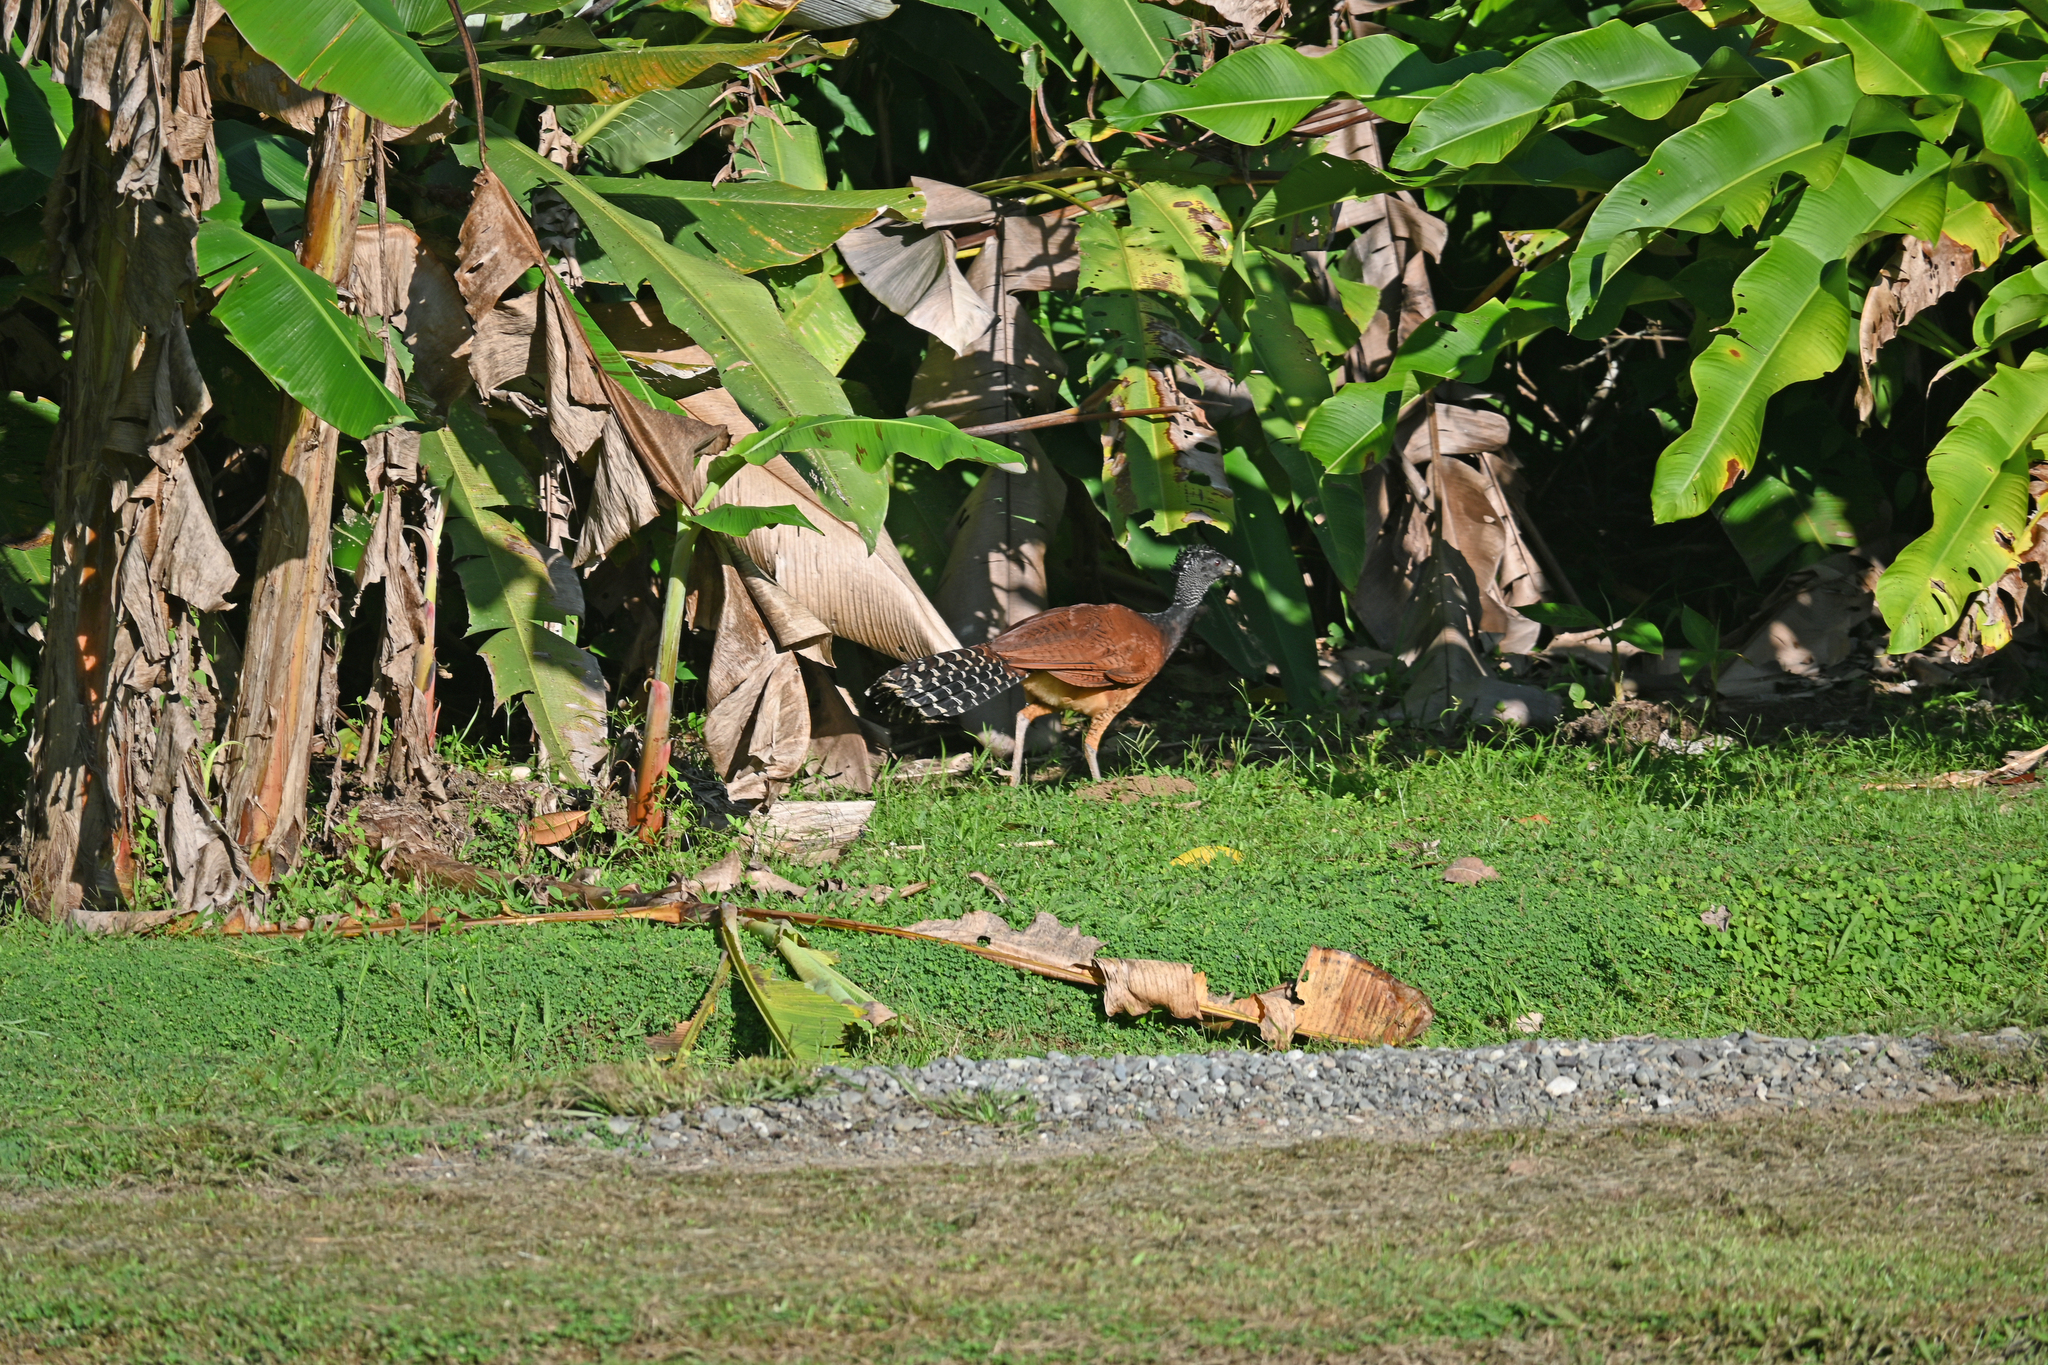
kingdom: Animalia
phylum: Chordata
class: Aves
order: Galliformes
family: Cracidae
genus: Crax
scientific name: Crax rubra
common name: Great curassow
